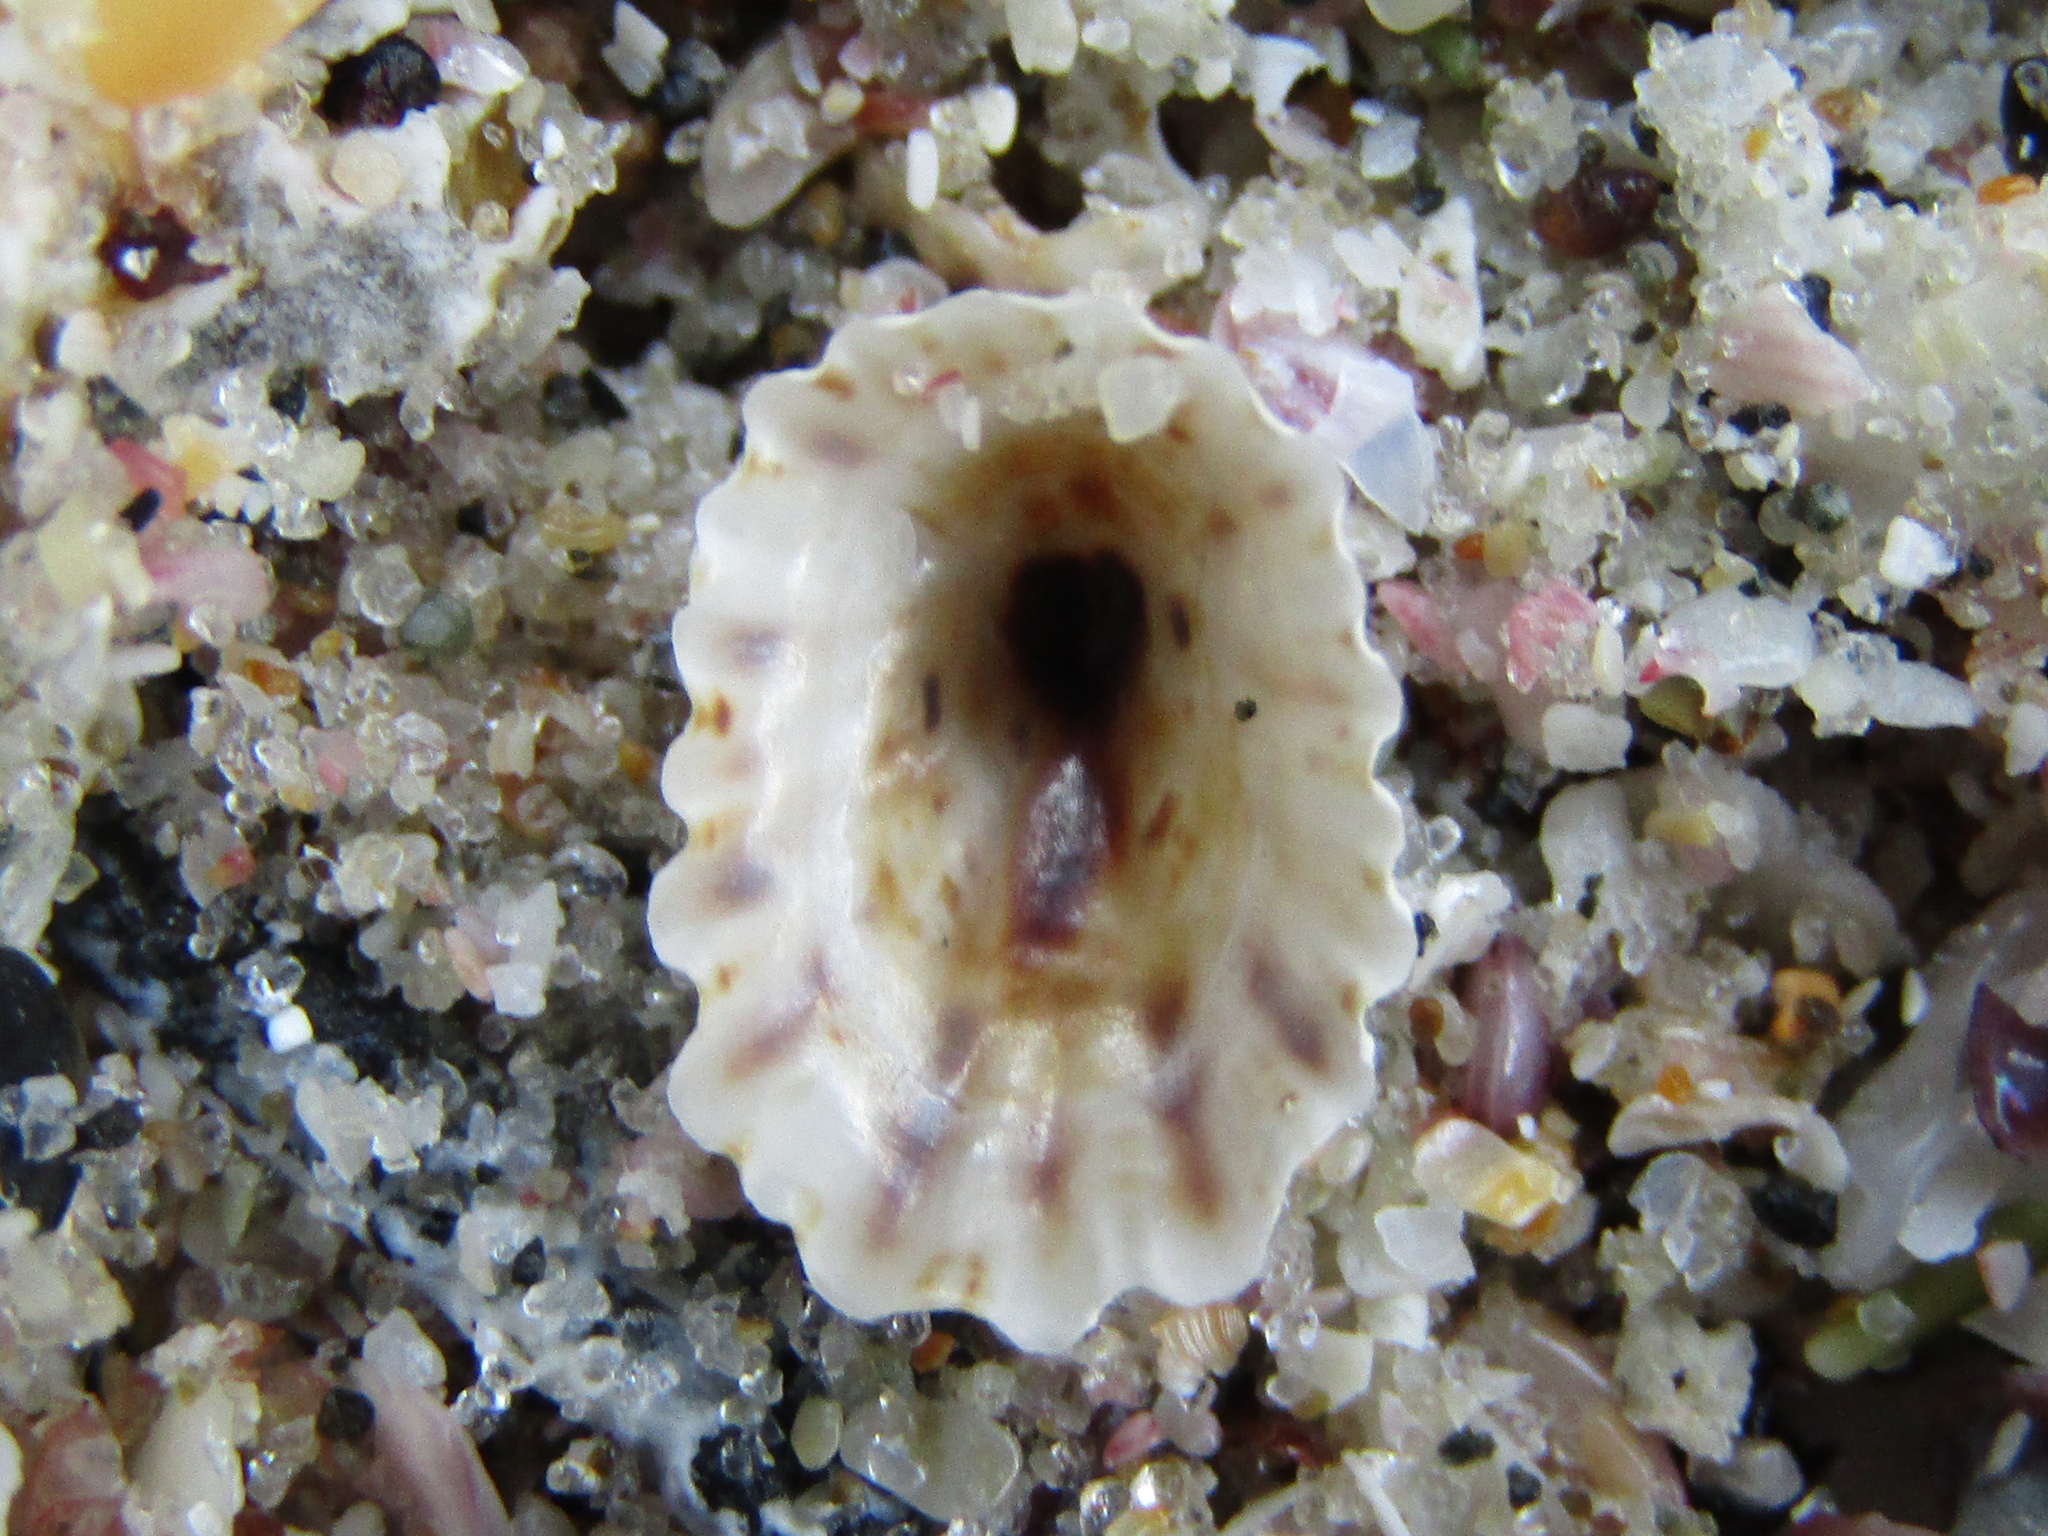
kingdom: Animalia
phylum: Mollusca
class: Gastropoda
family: Lottiidae
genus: Patelloida
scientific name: Patelloida corticata
